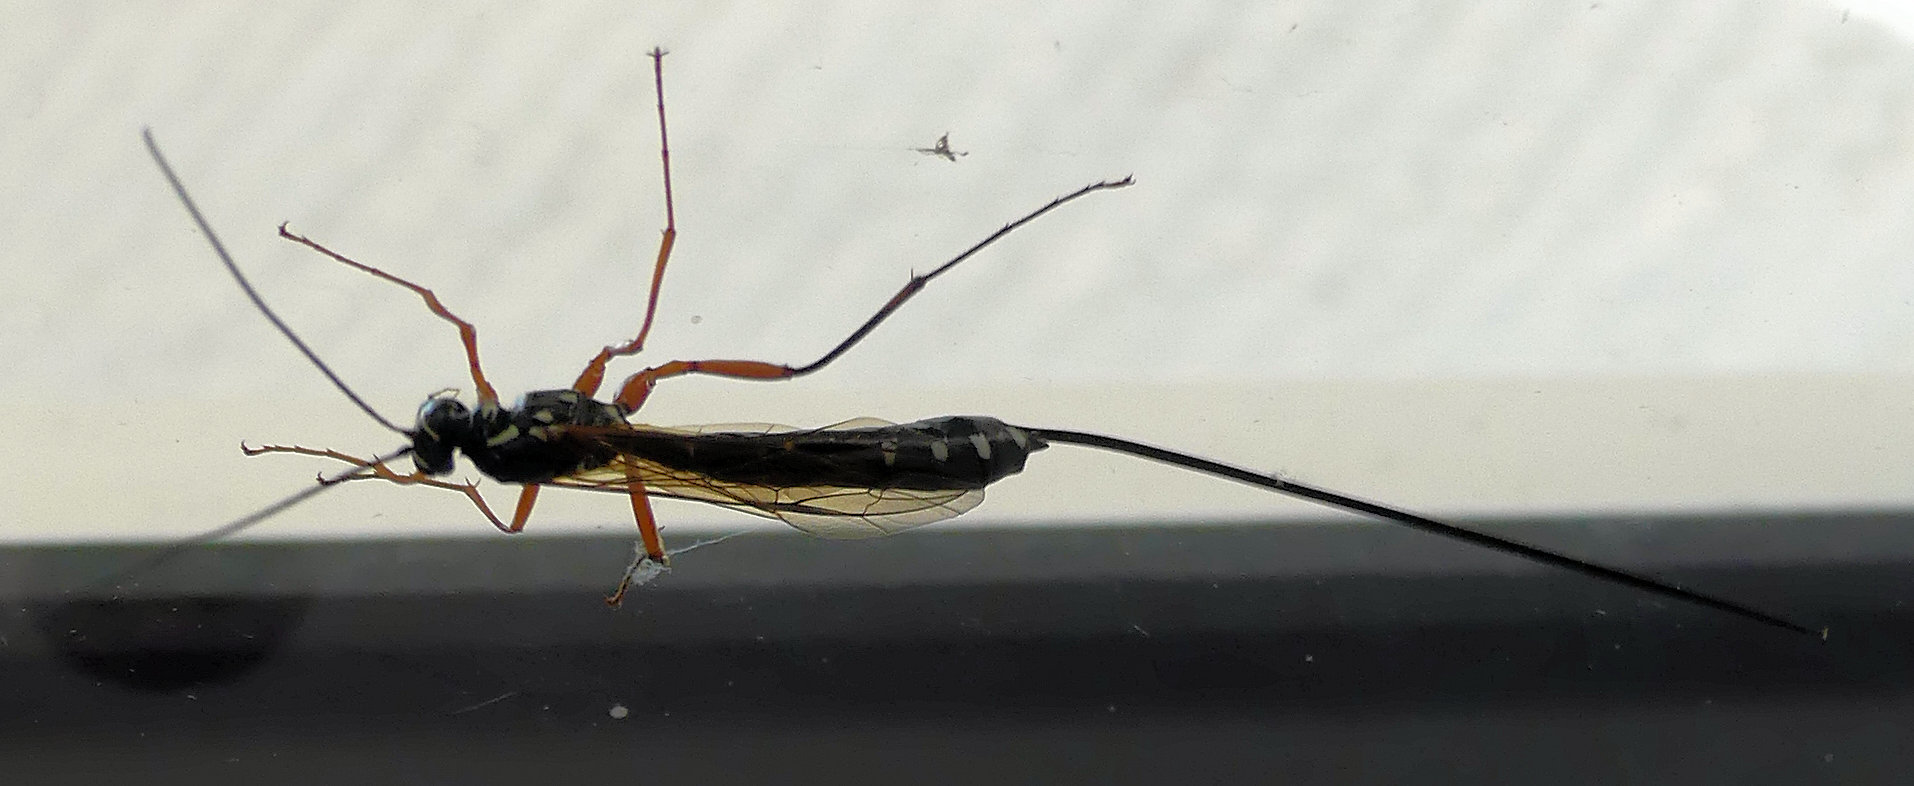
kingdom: Animalia
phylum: Arthropoda
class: Insecta
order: Hymenoptera
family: Ichneumonidae
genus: Rhyssa
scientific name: Rhyssa persuasoria
